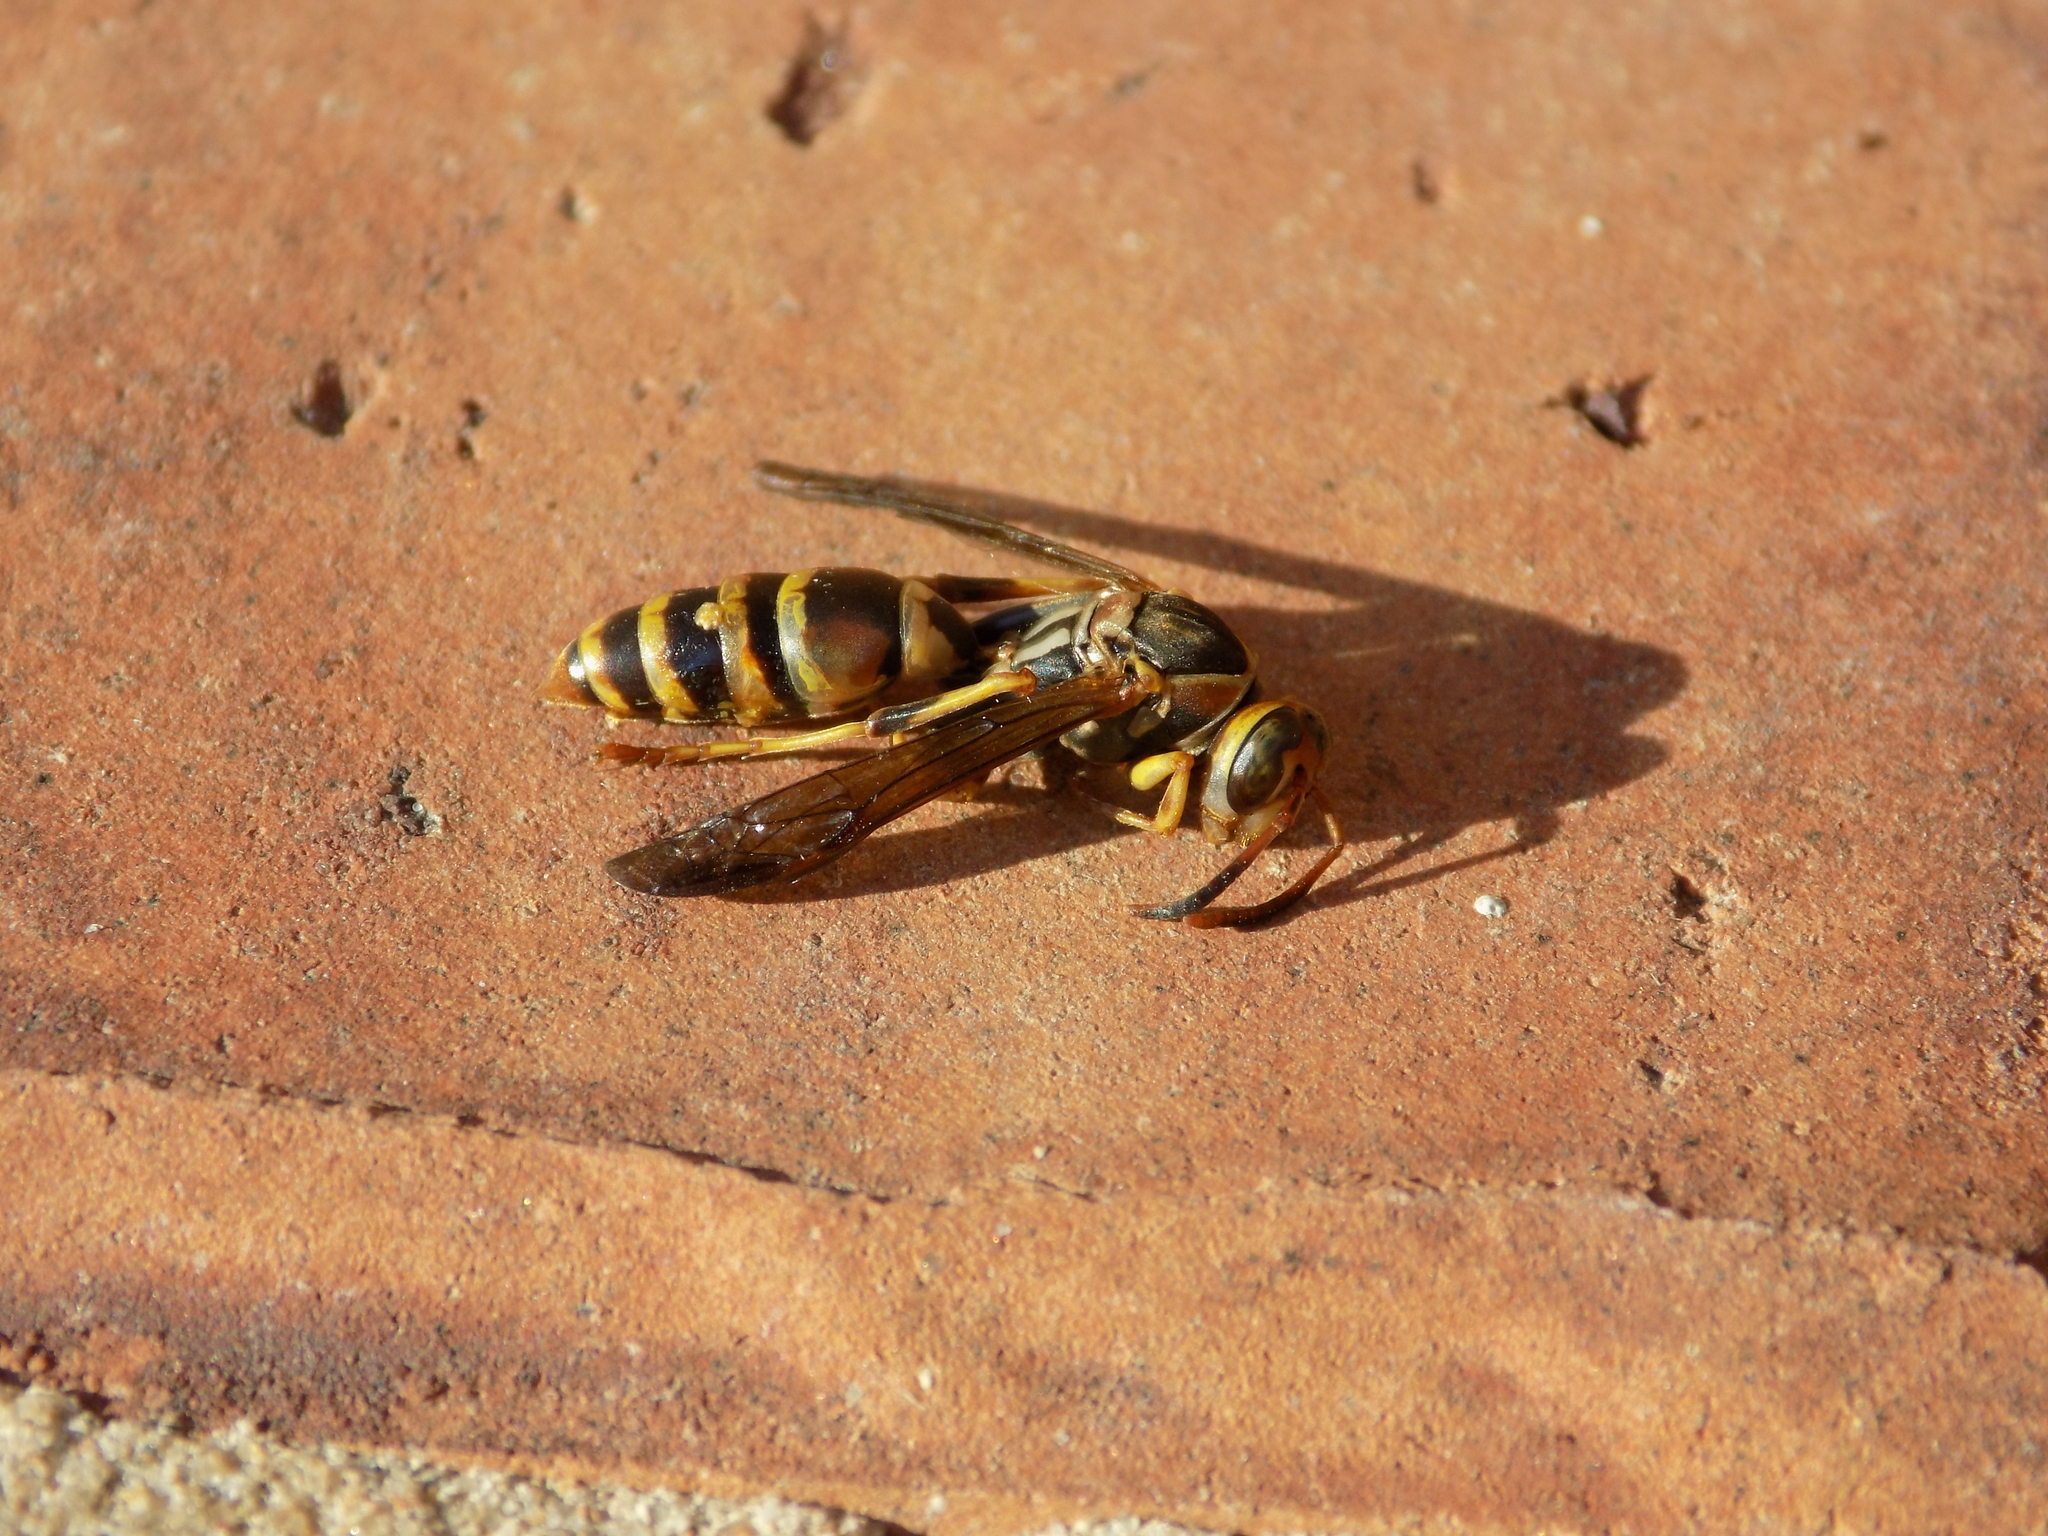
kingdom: Animalia
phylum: Arthropoda
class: Insecta
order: Hymenoptera
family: Eumenidae
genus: Polistes
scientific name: Polistes dorsalis
